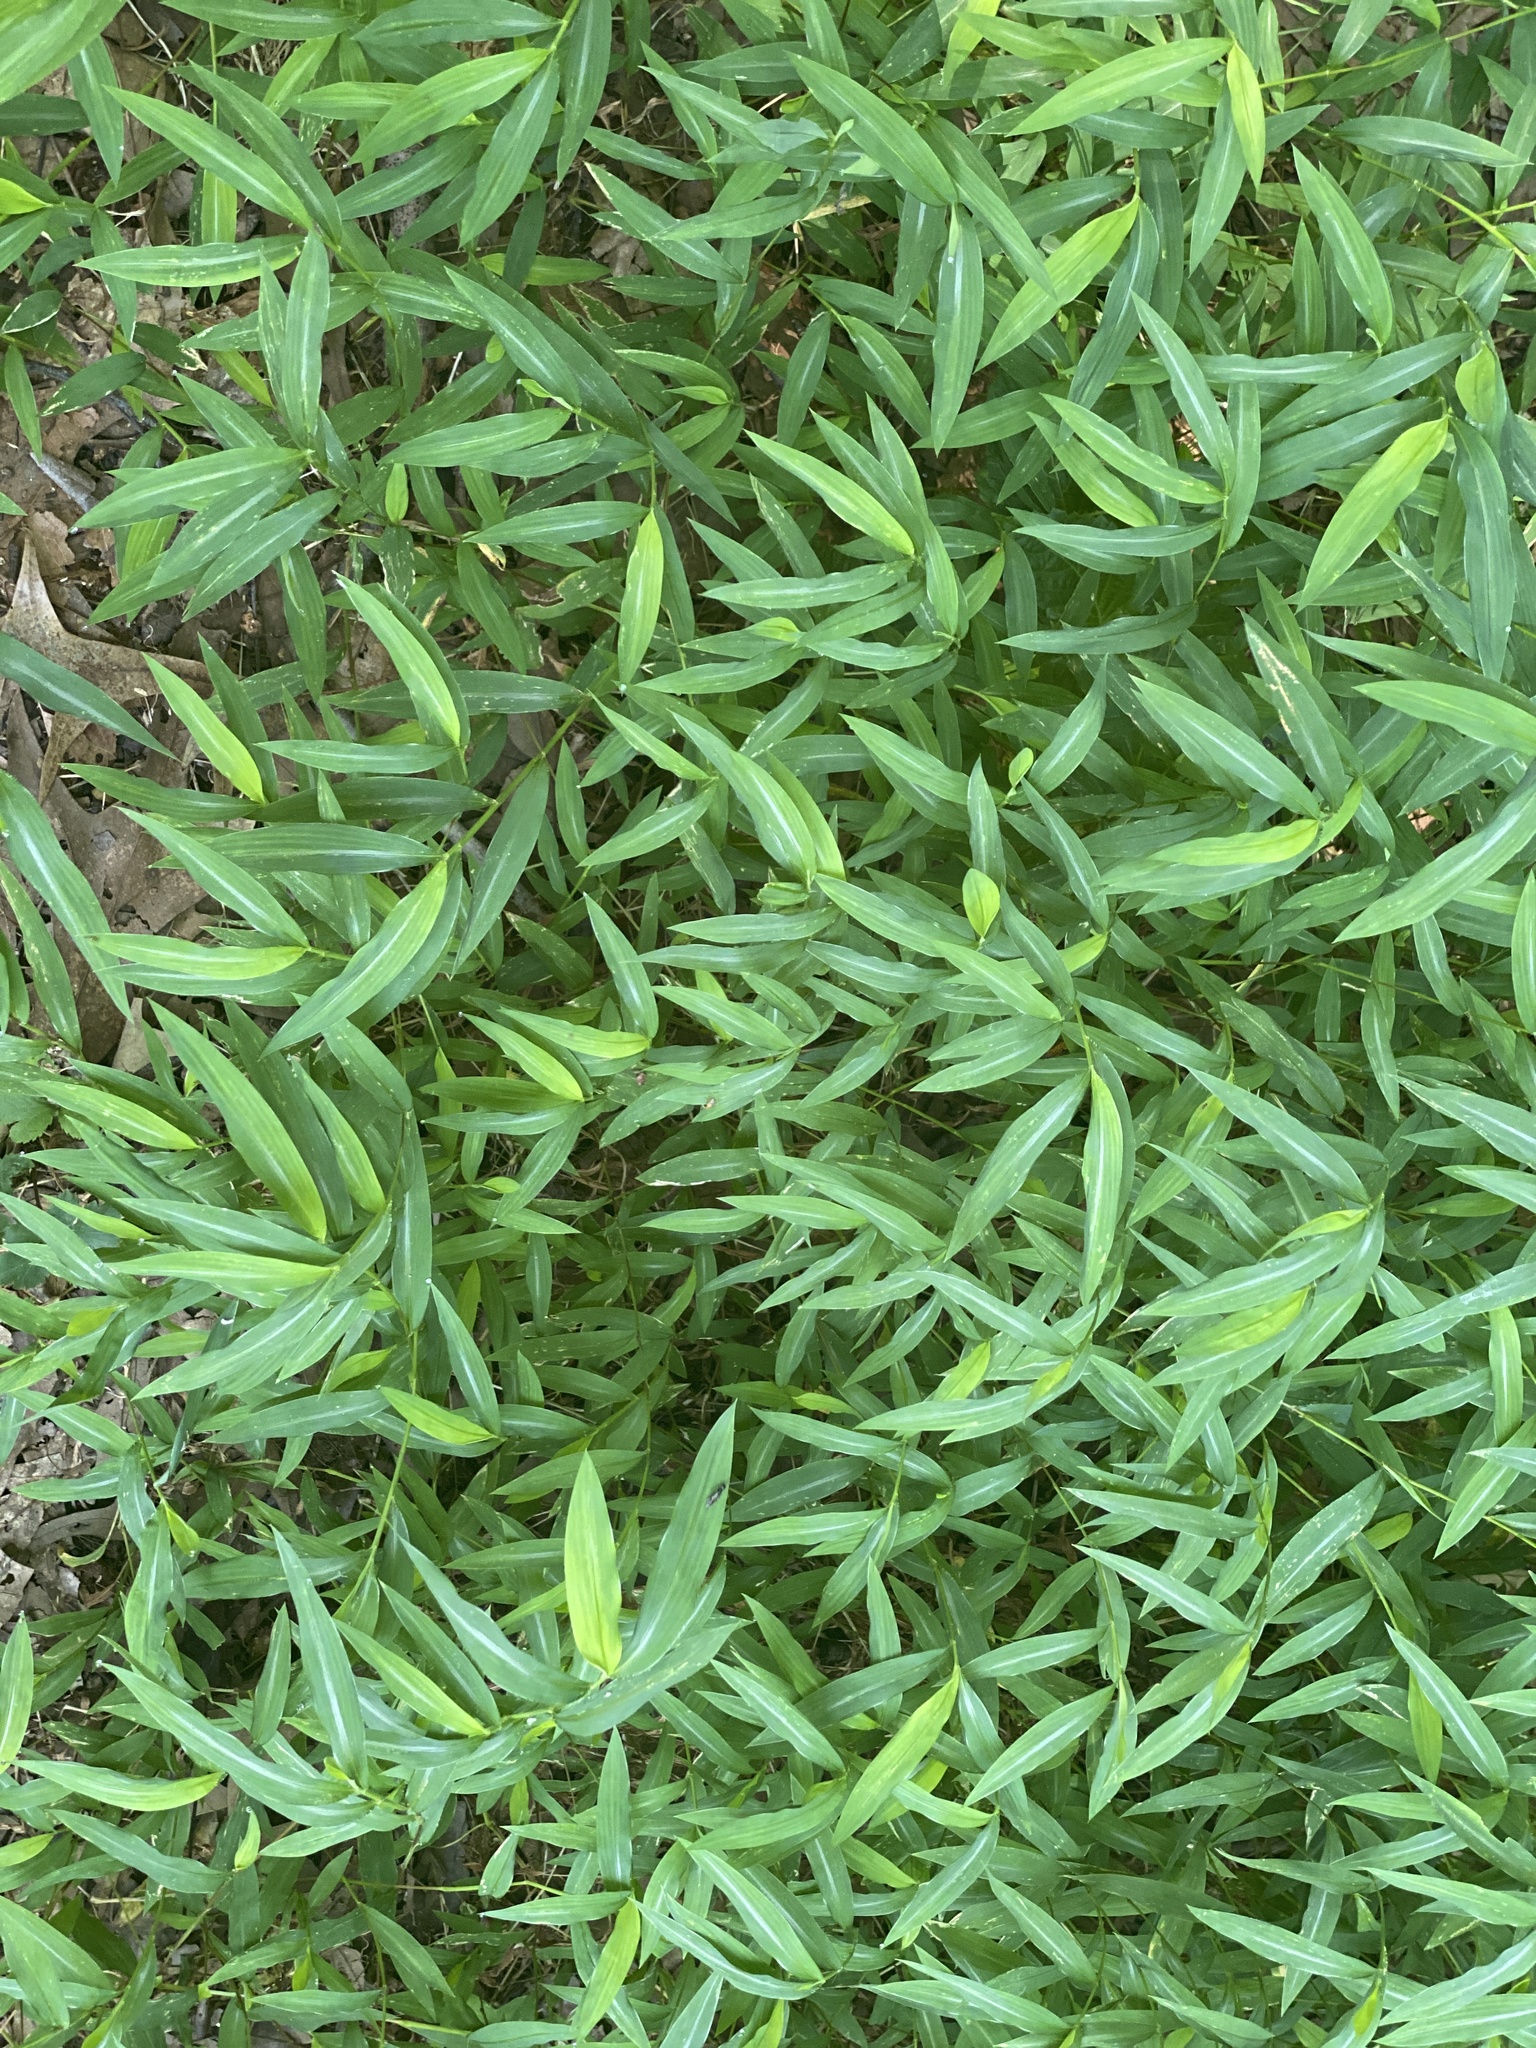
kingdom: Plantae
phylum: Tracheophyta
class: Liliopsida
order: Poales
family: Poaceae
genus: Microstegium
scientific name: Microstegium vimineum
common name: Japanese stiltgrass
